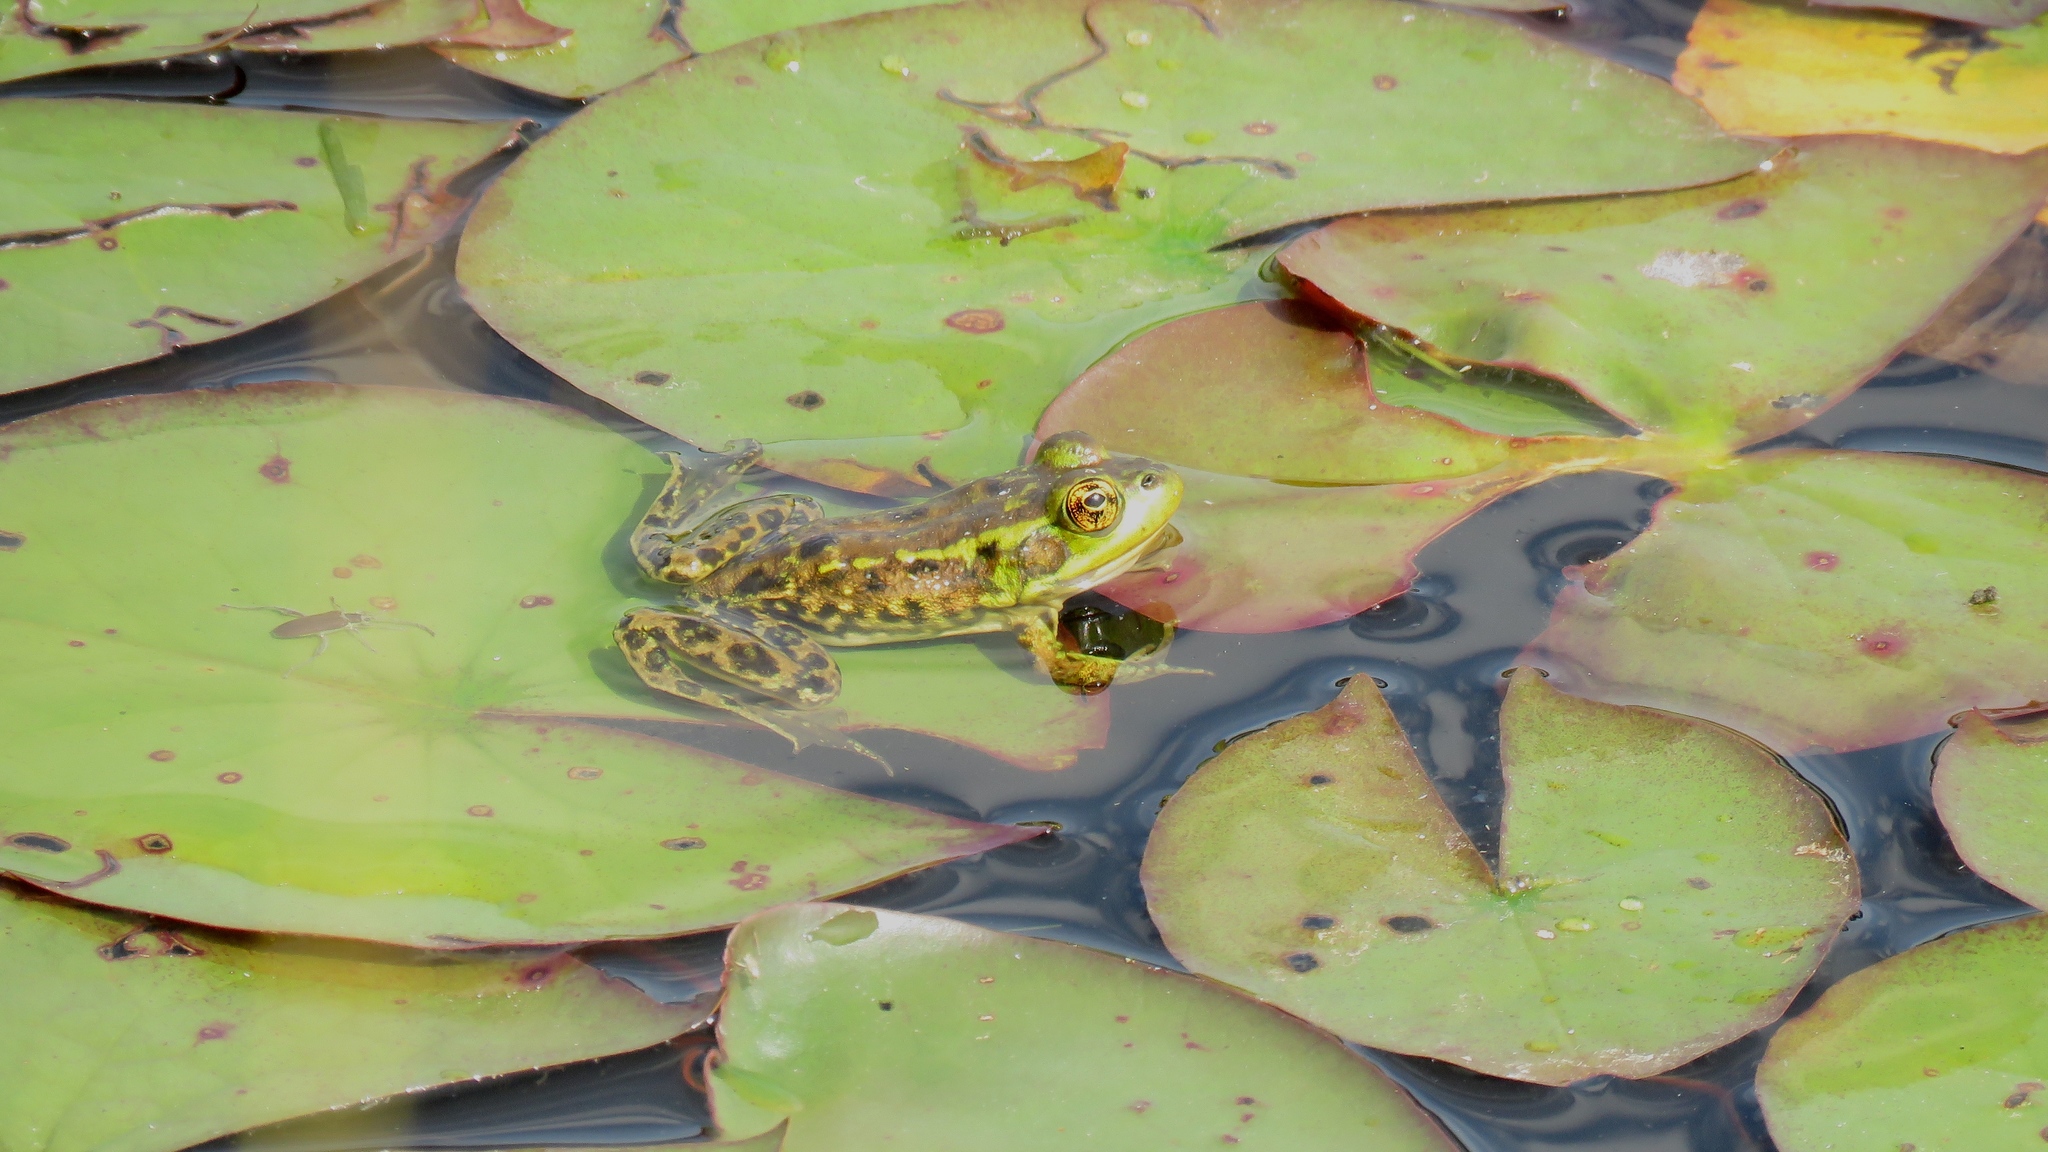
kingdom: Animalia
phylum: Chordata
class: Amphibia
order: Anura
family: Ranidae
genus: Lithobates
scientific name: Lithobates septentrionalis
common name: Mink frog
